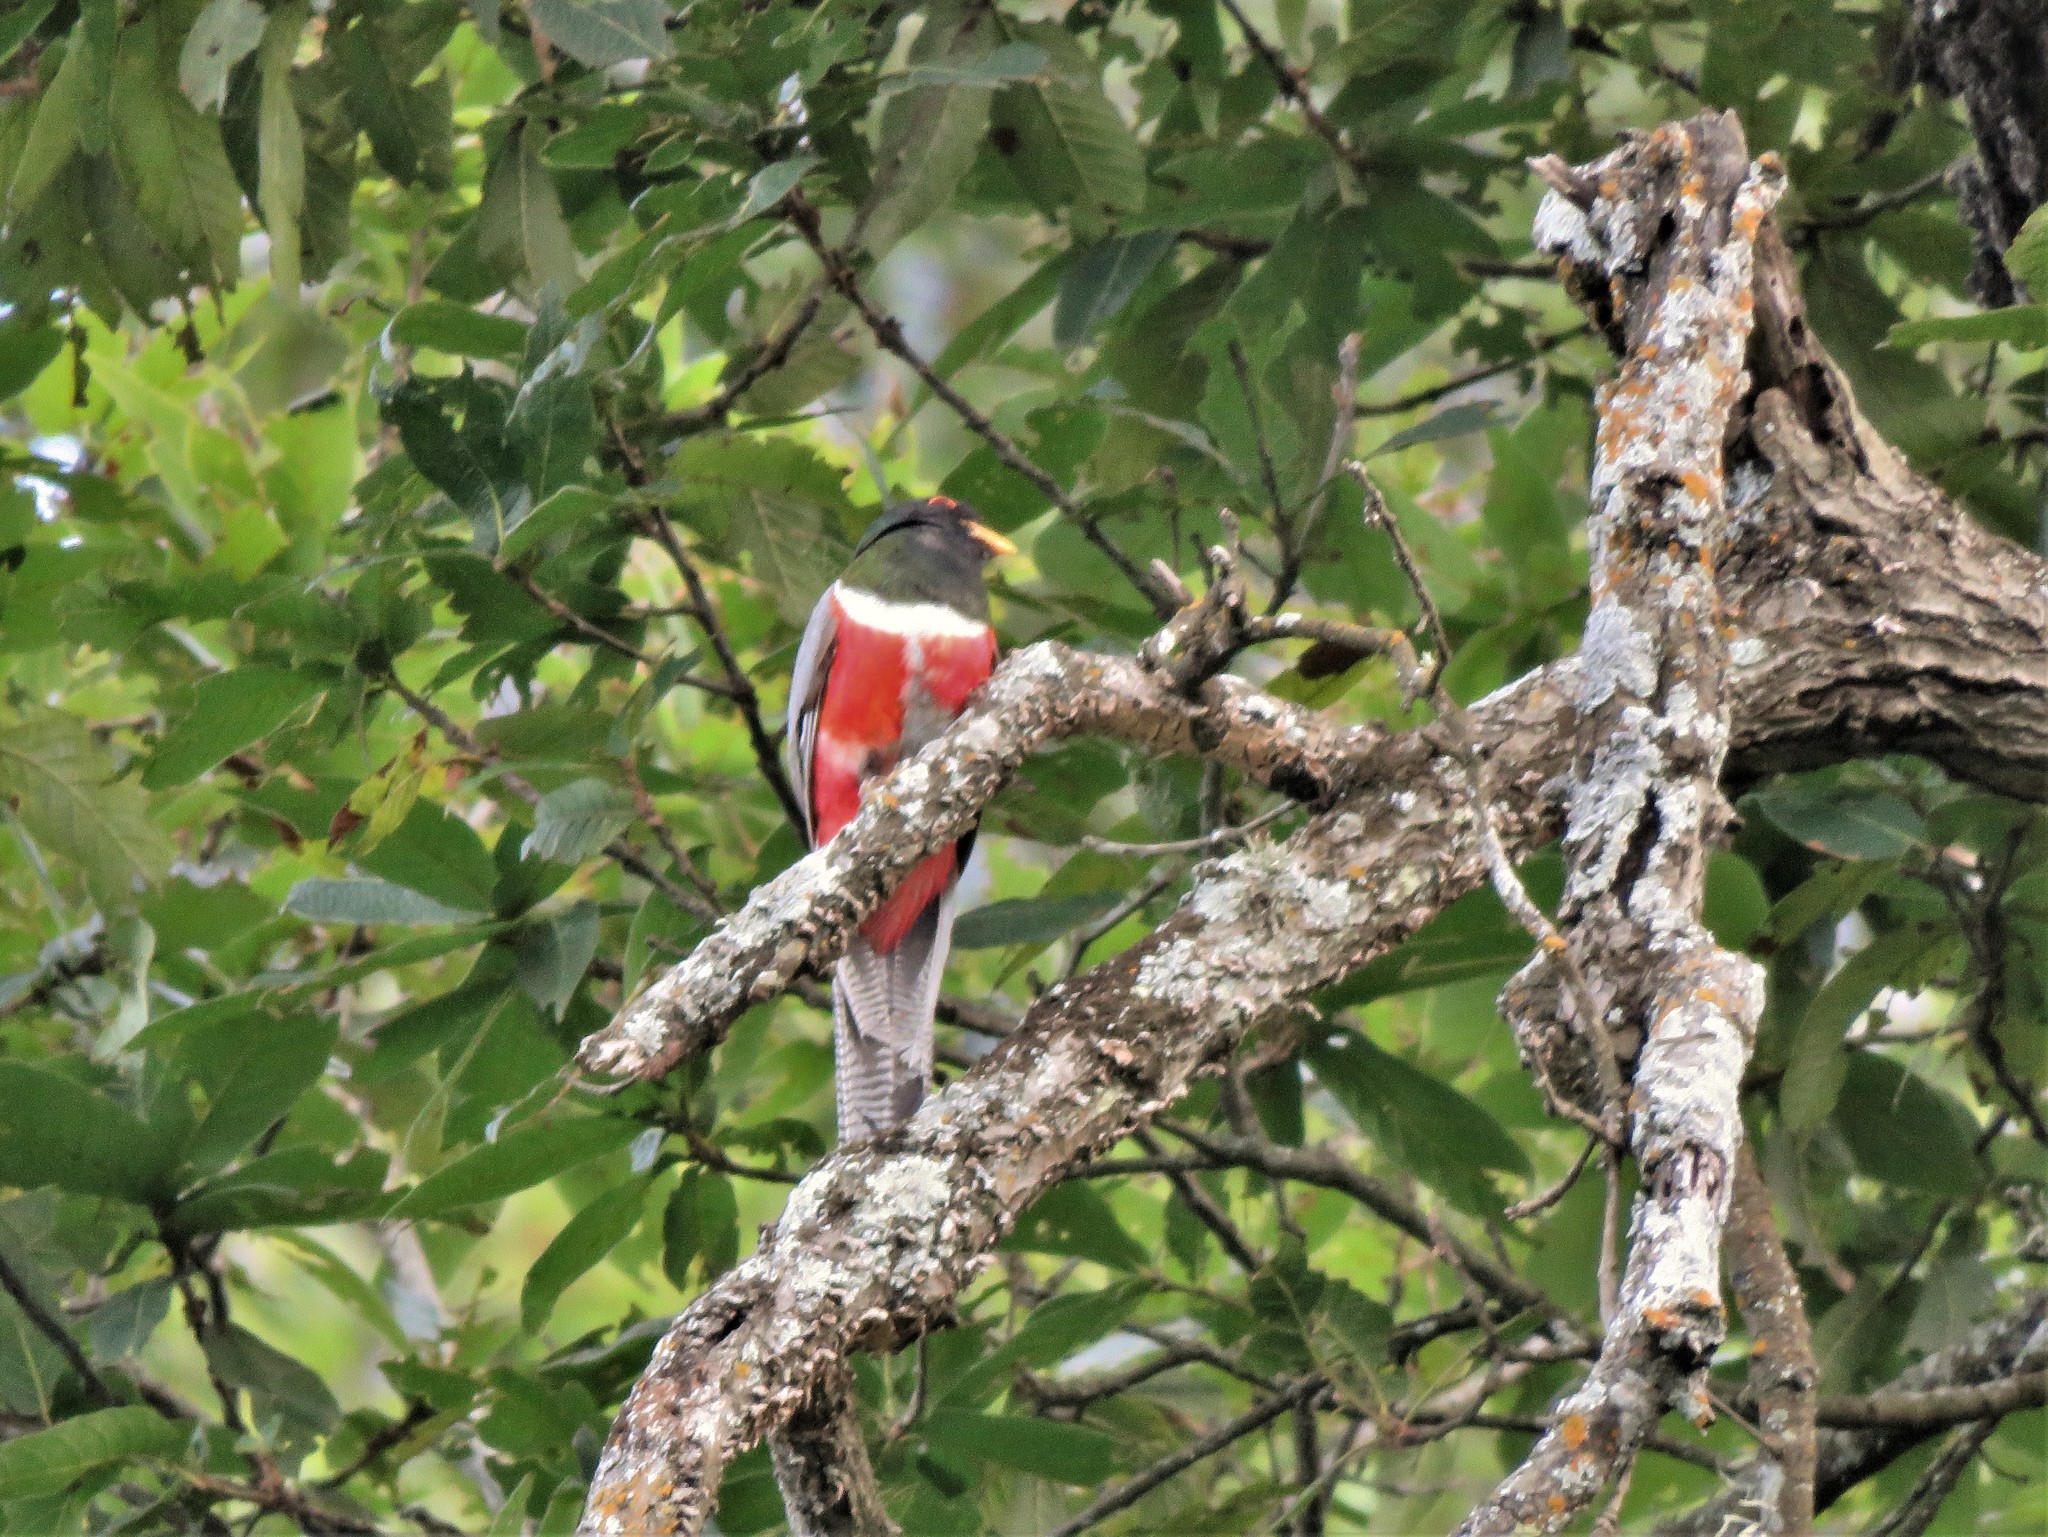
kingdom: Animalia
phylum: Chordata
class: Aves
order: Trogoniformes
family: Trogonidae
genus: Trogon
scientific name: Trogon elegans
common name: Elegant trogon
